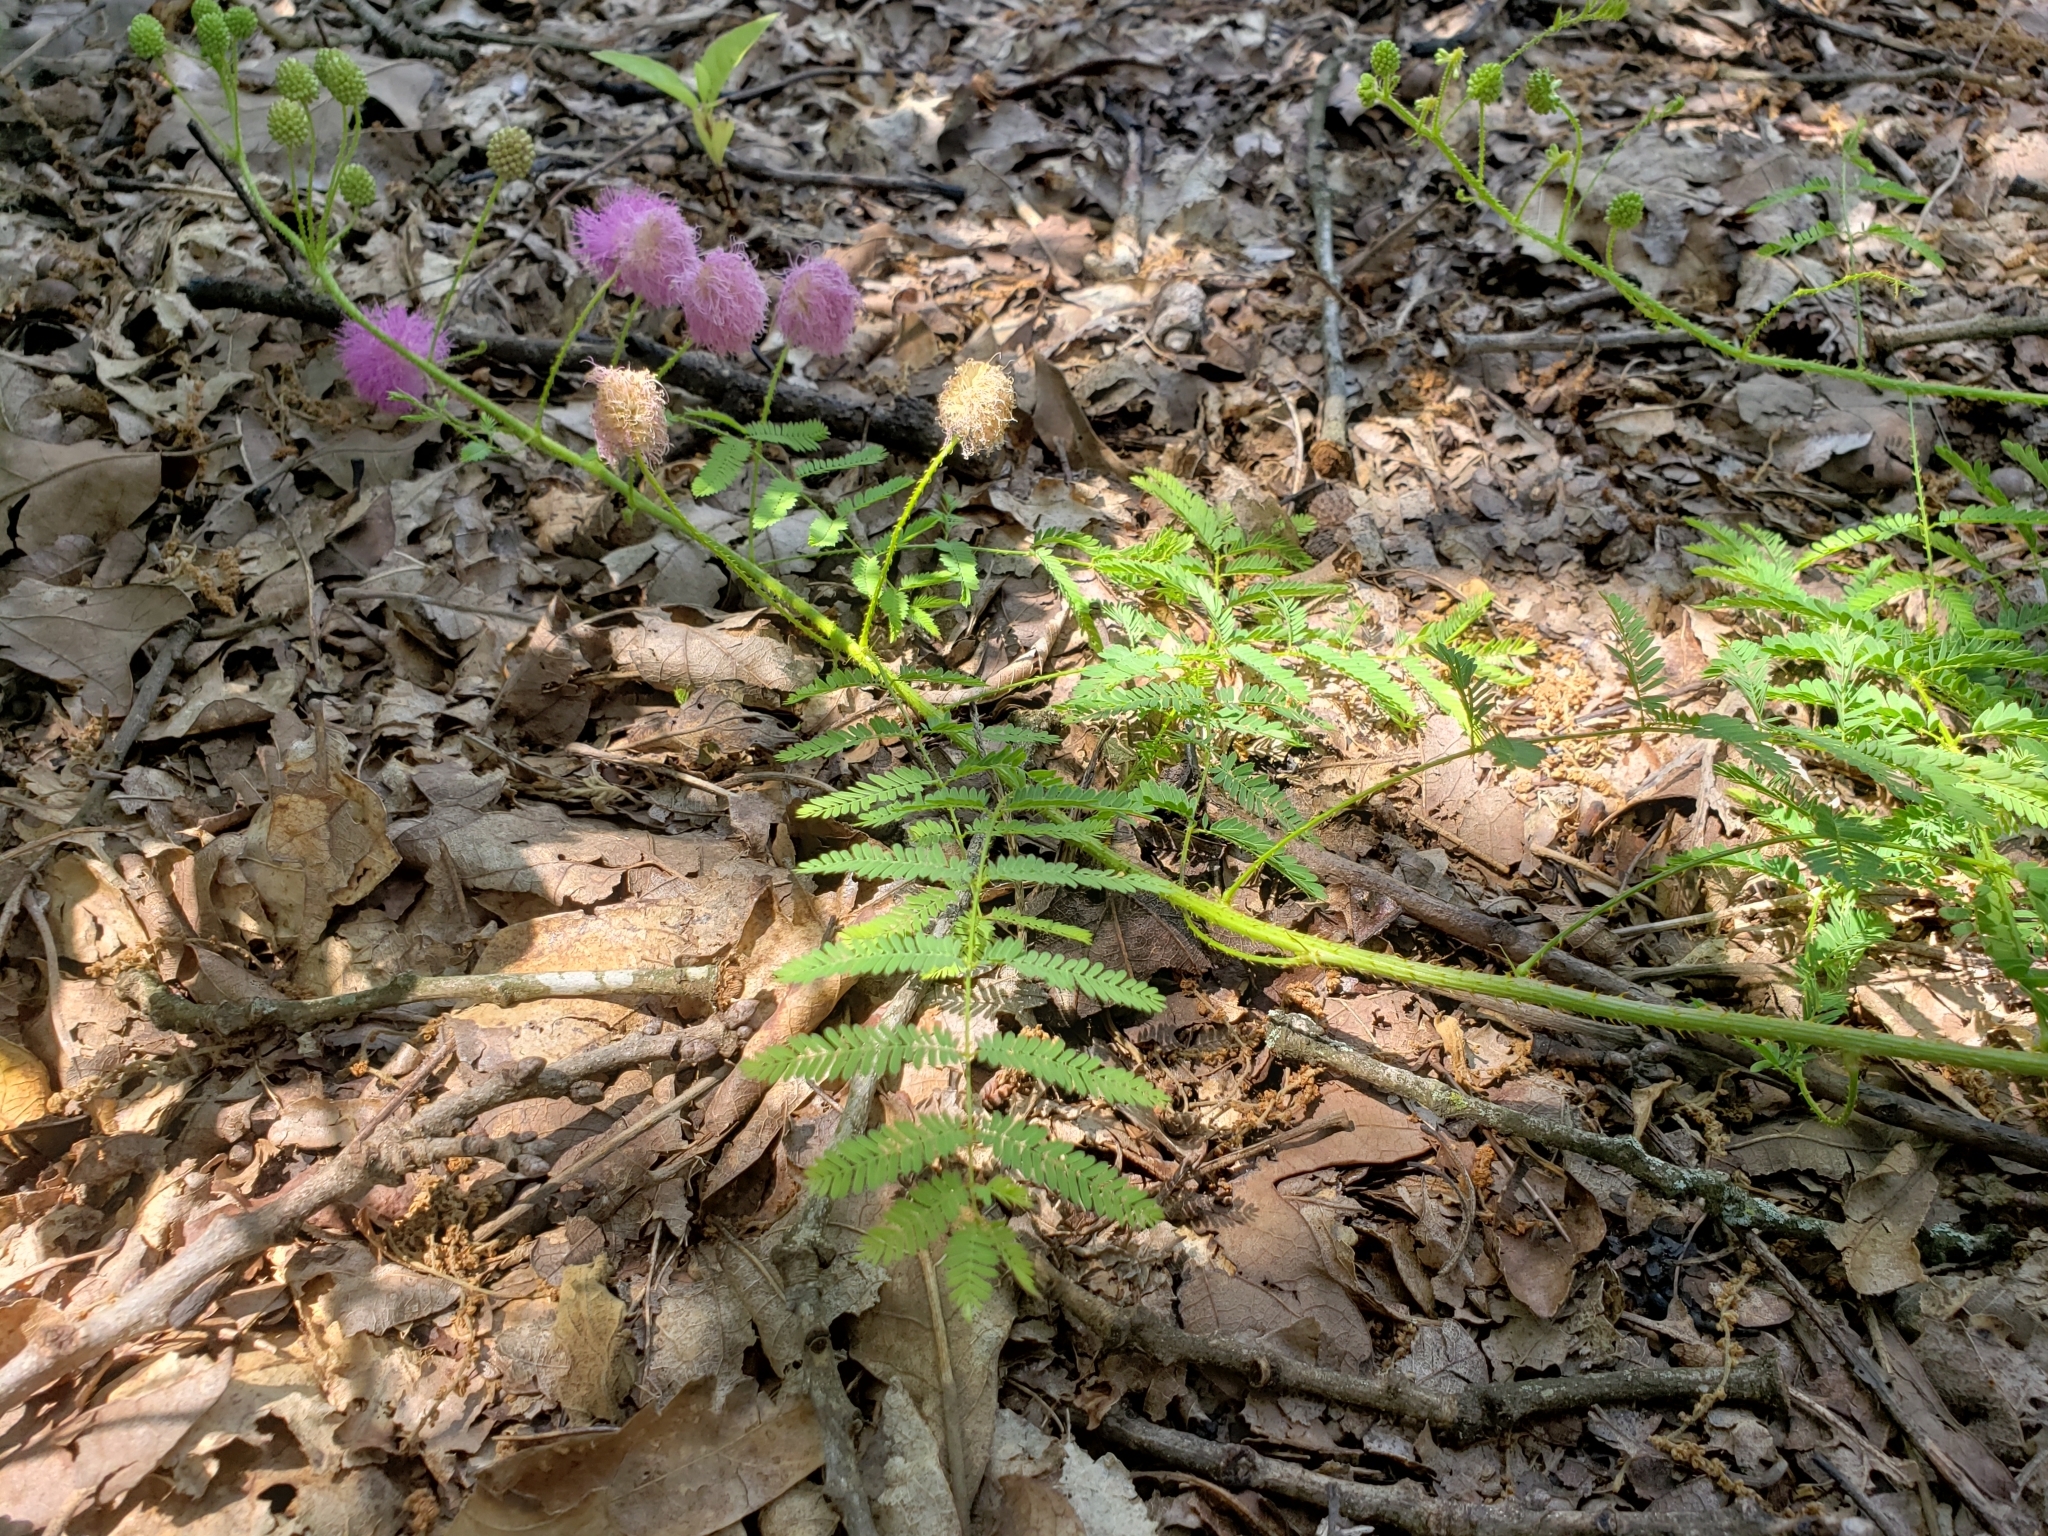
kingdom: Plantae
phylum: Tracheophyta
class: Magnoliopsida
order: Fabales
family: Fabaceae
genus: Mimosa
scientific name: Mimosa quadrivalvis
